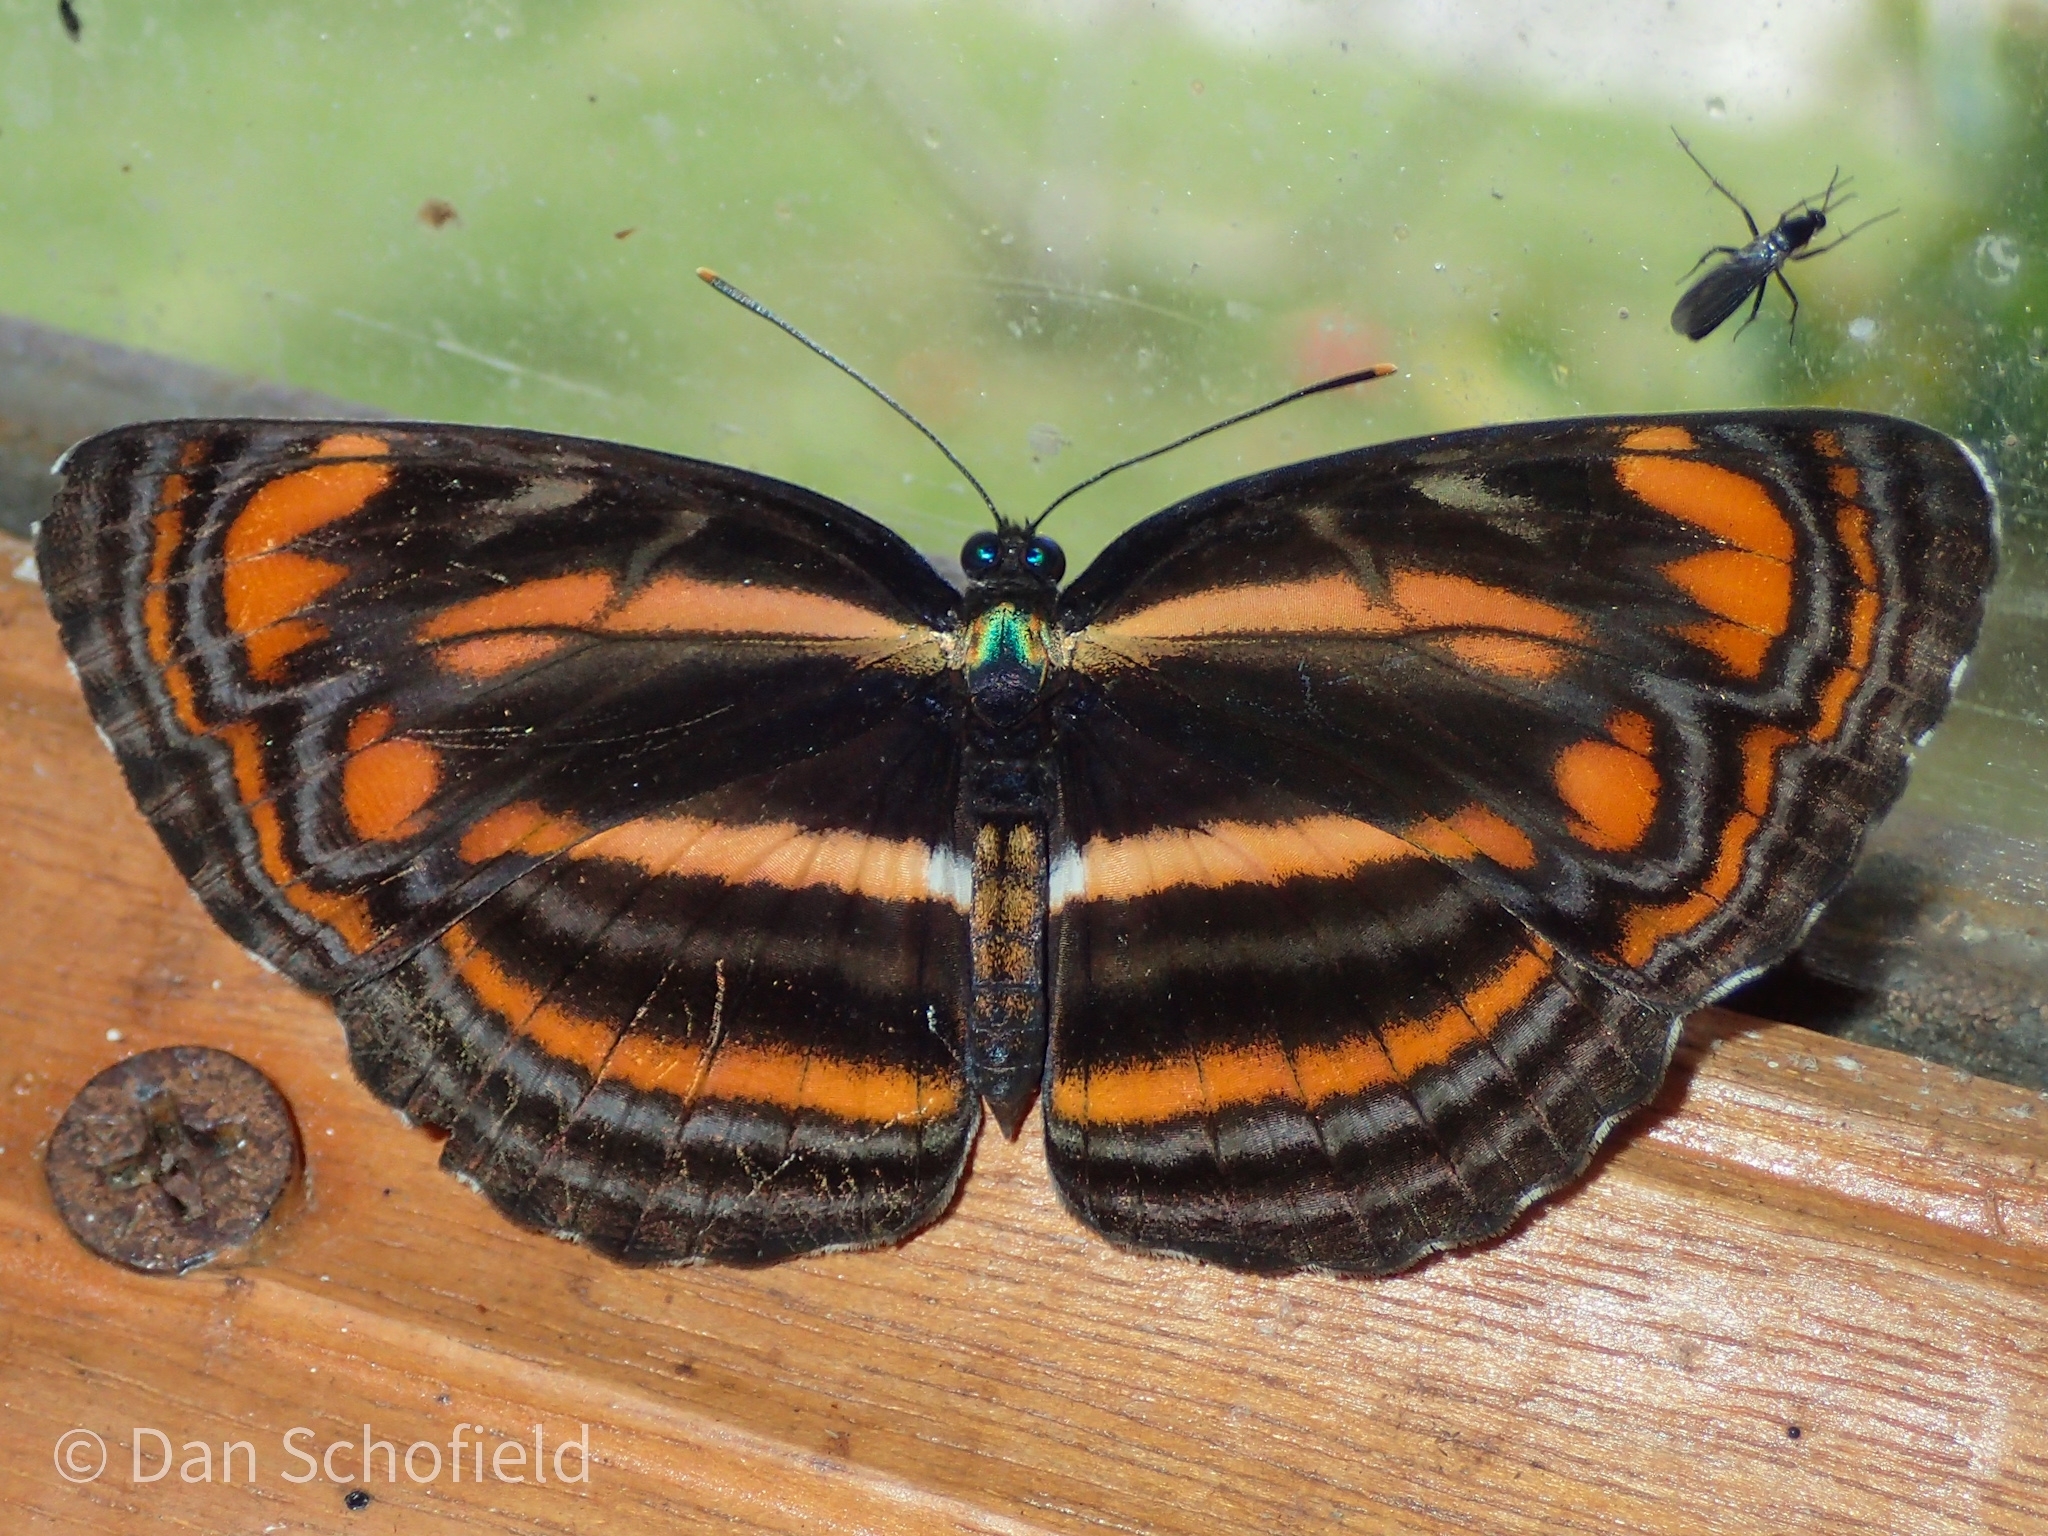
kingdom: Animalia
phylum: Arthropoda
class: Insecta
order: Lepidoptera
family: Nymphalidae
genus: Pantoporia
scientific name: Pantoporia antara
